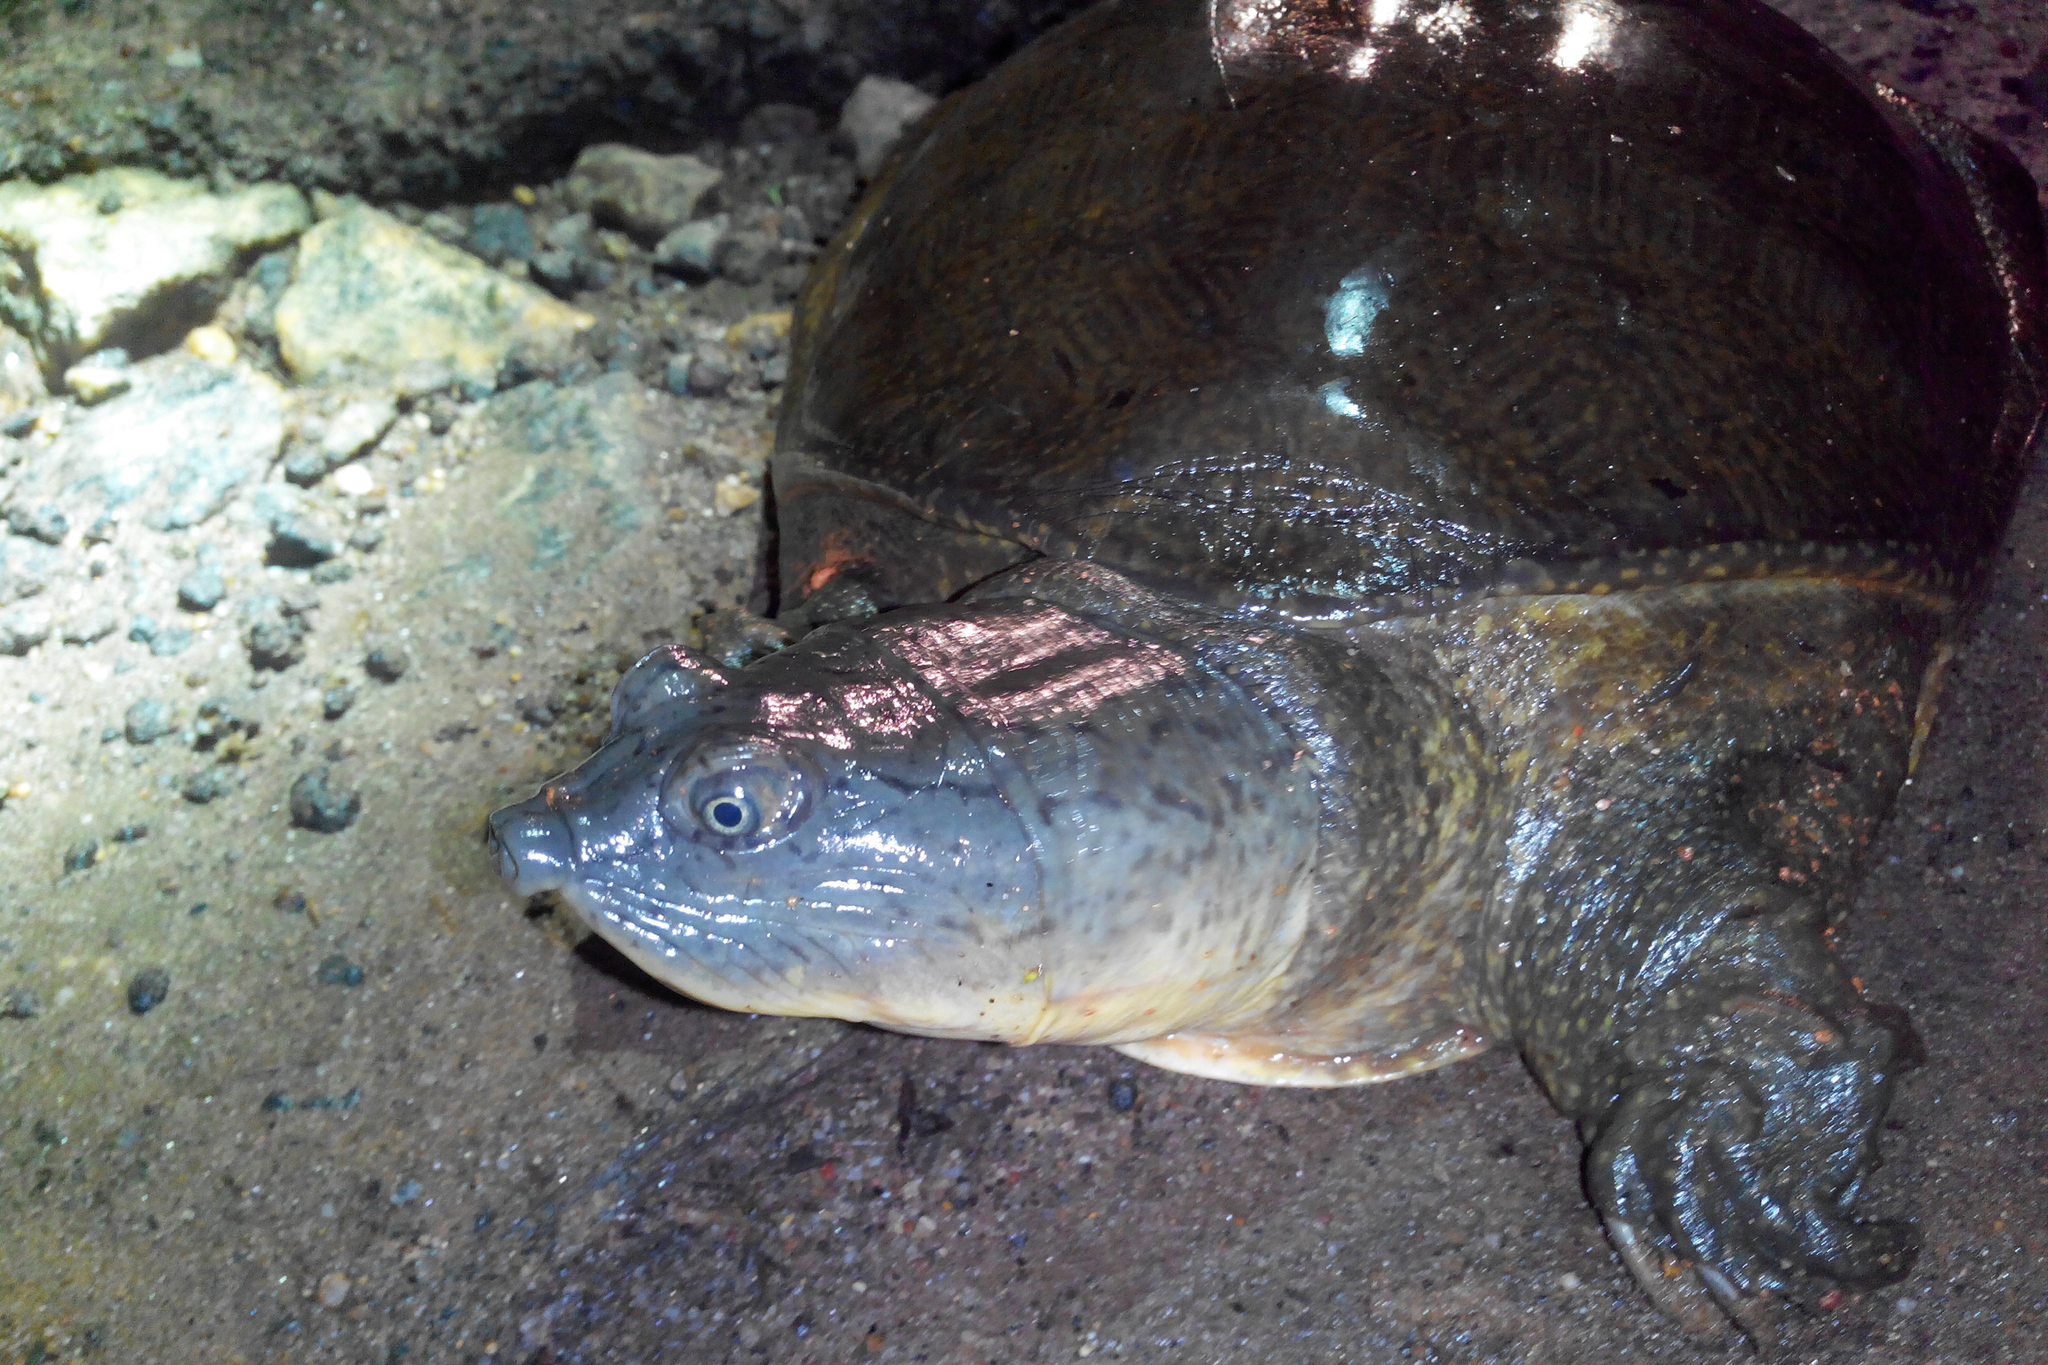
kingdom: Animalia
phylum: Chordata
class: Testudines
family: Trionychidae
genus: Lissemys
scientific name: Lissemys punctata
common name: Indian flap-shelled turtle
